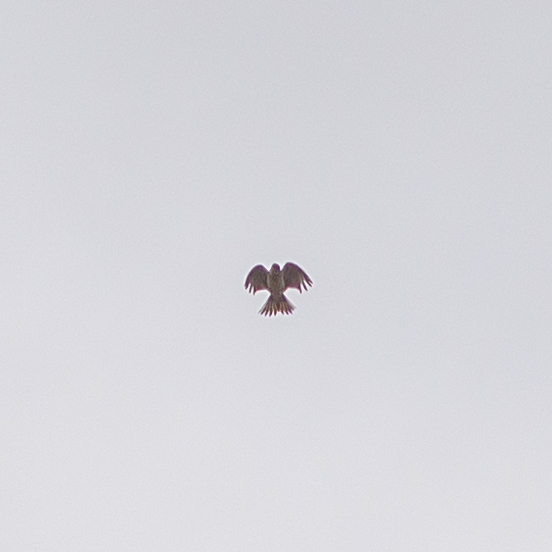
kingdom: Animalia
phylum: Chordata
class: Aves
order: Passeriformes
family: Alaudidae
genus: Alauda
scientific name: Alauda arvensis
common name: Eurasian skylark
